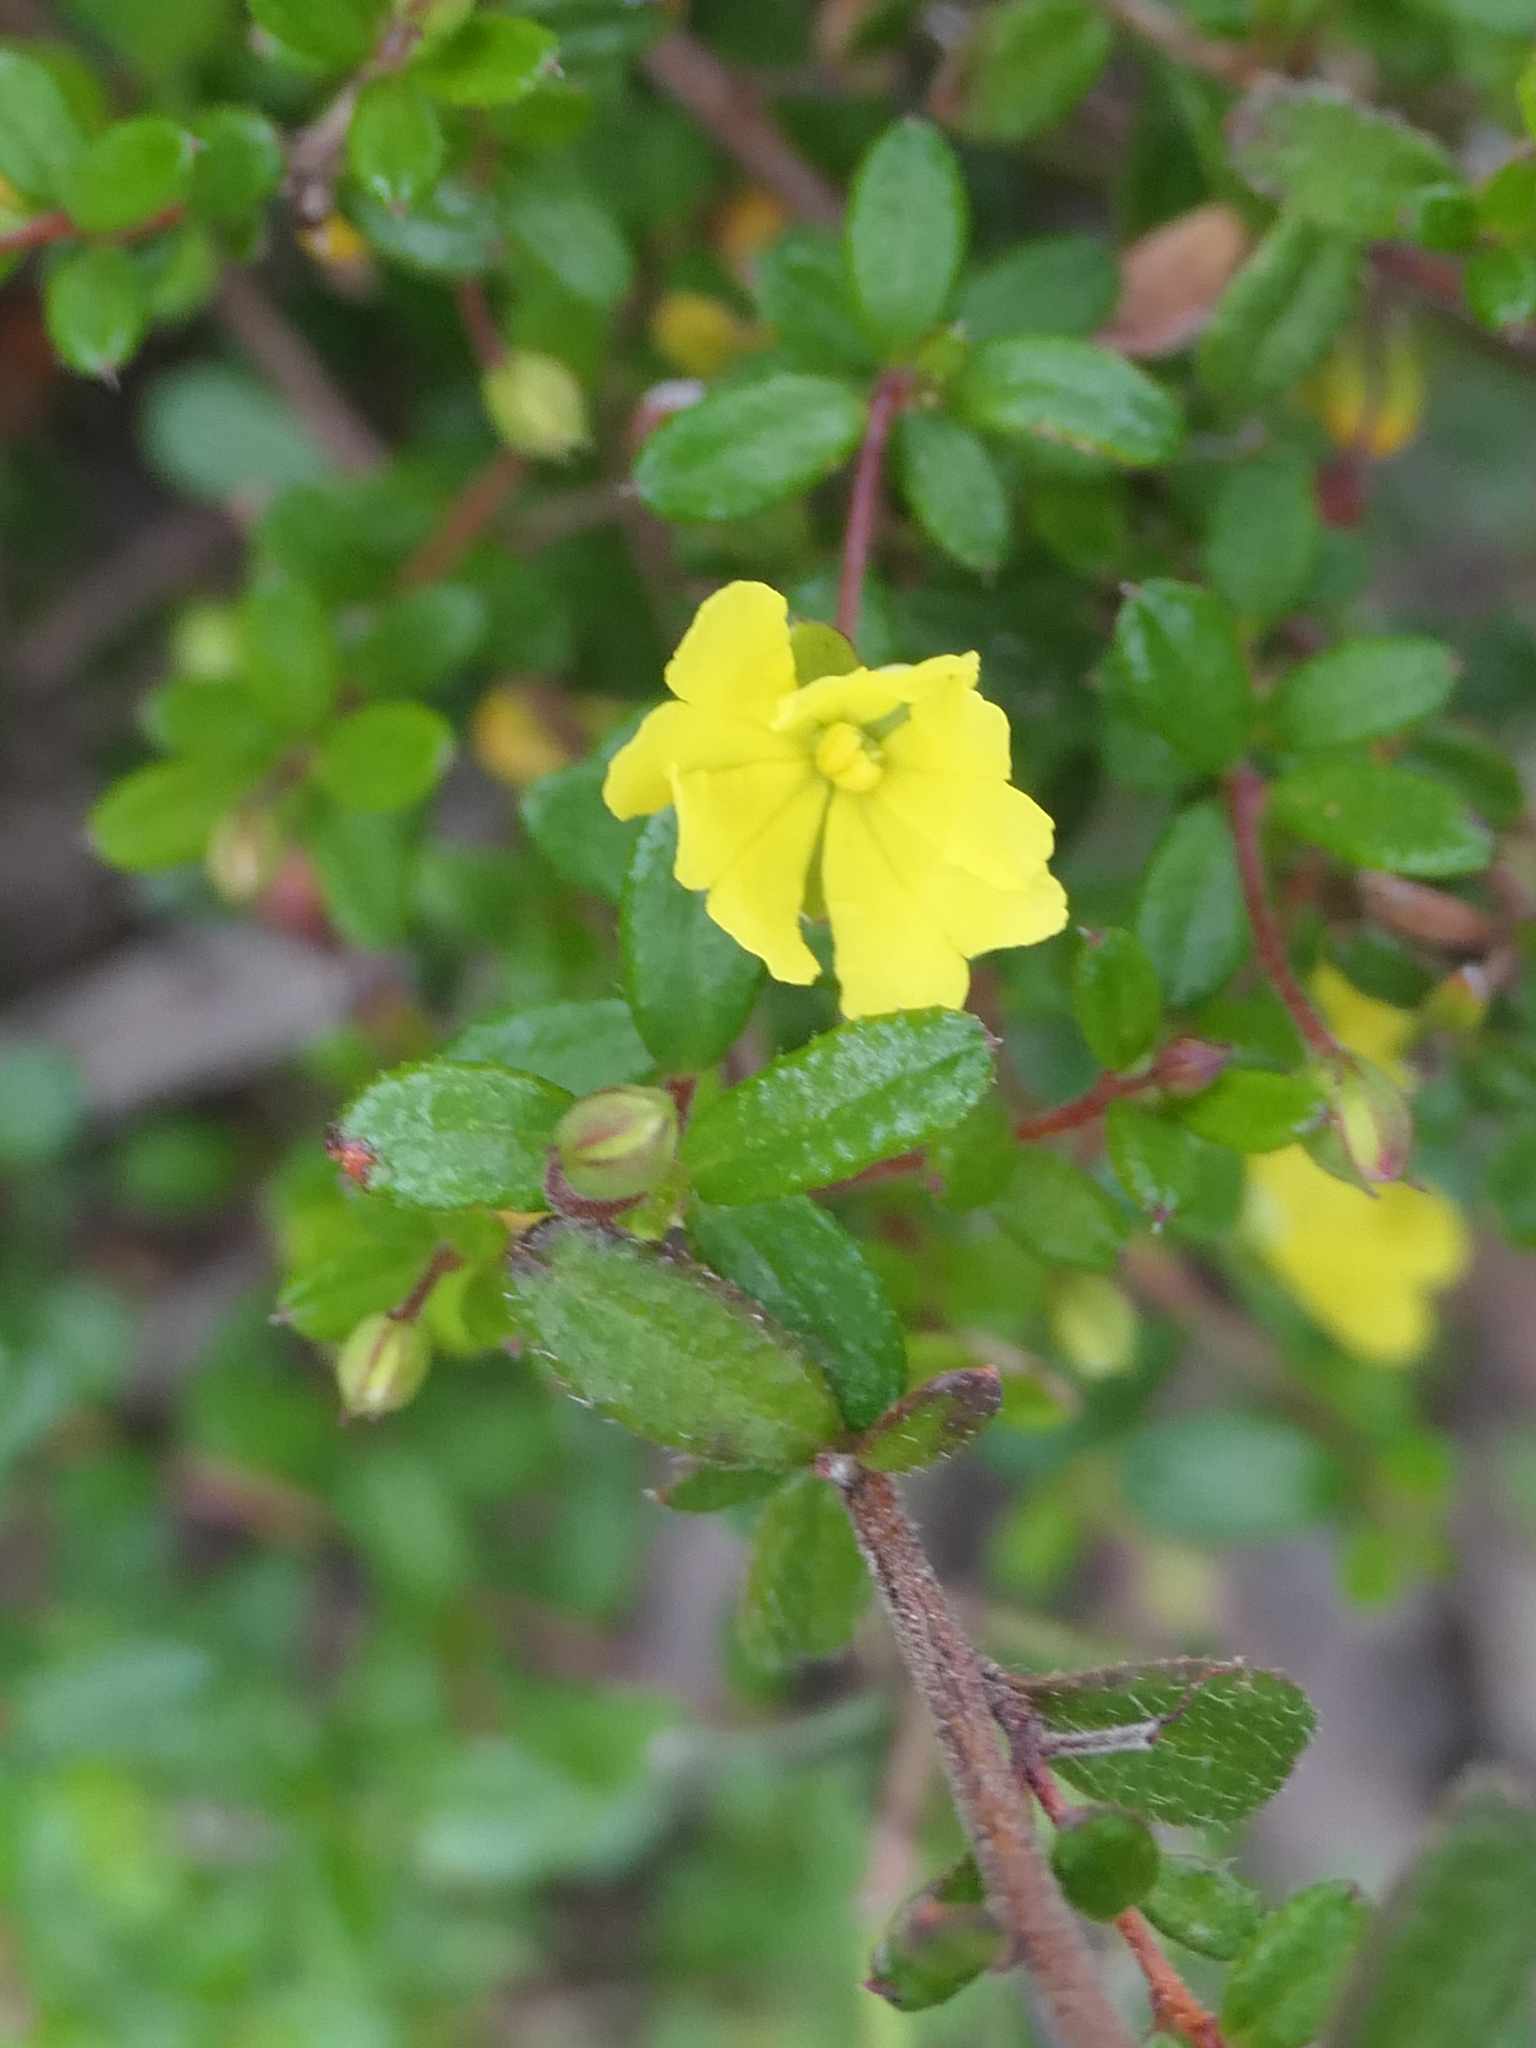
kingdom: Plantae
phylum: Tracheophyta
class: Magnoliopsida
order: Dilleniales
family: Dilleniaceae
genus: Hibbertia
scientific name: Hibbertia empetrifolia
